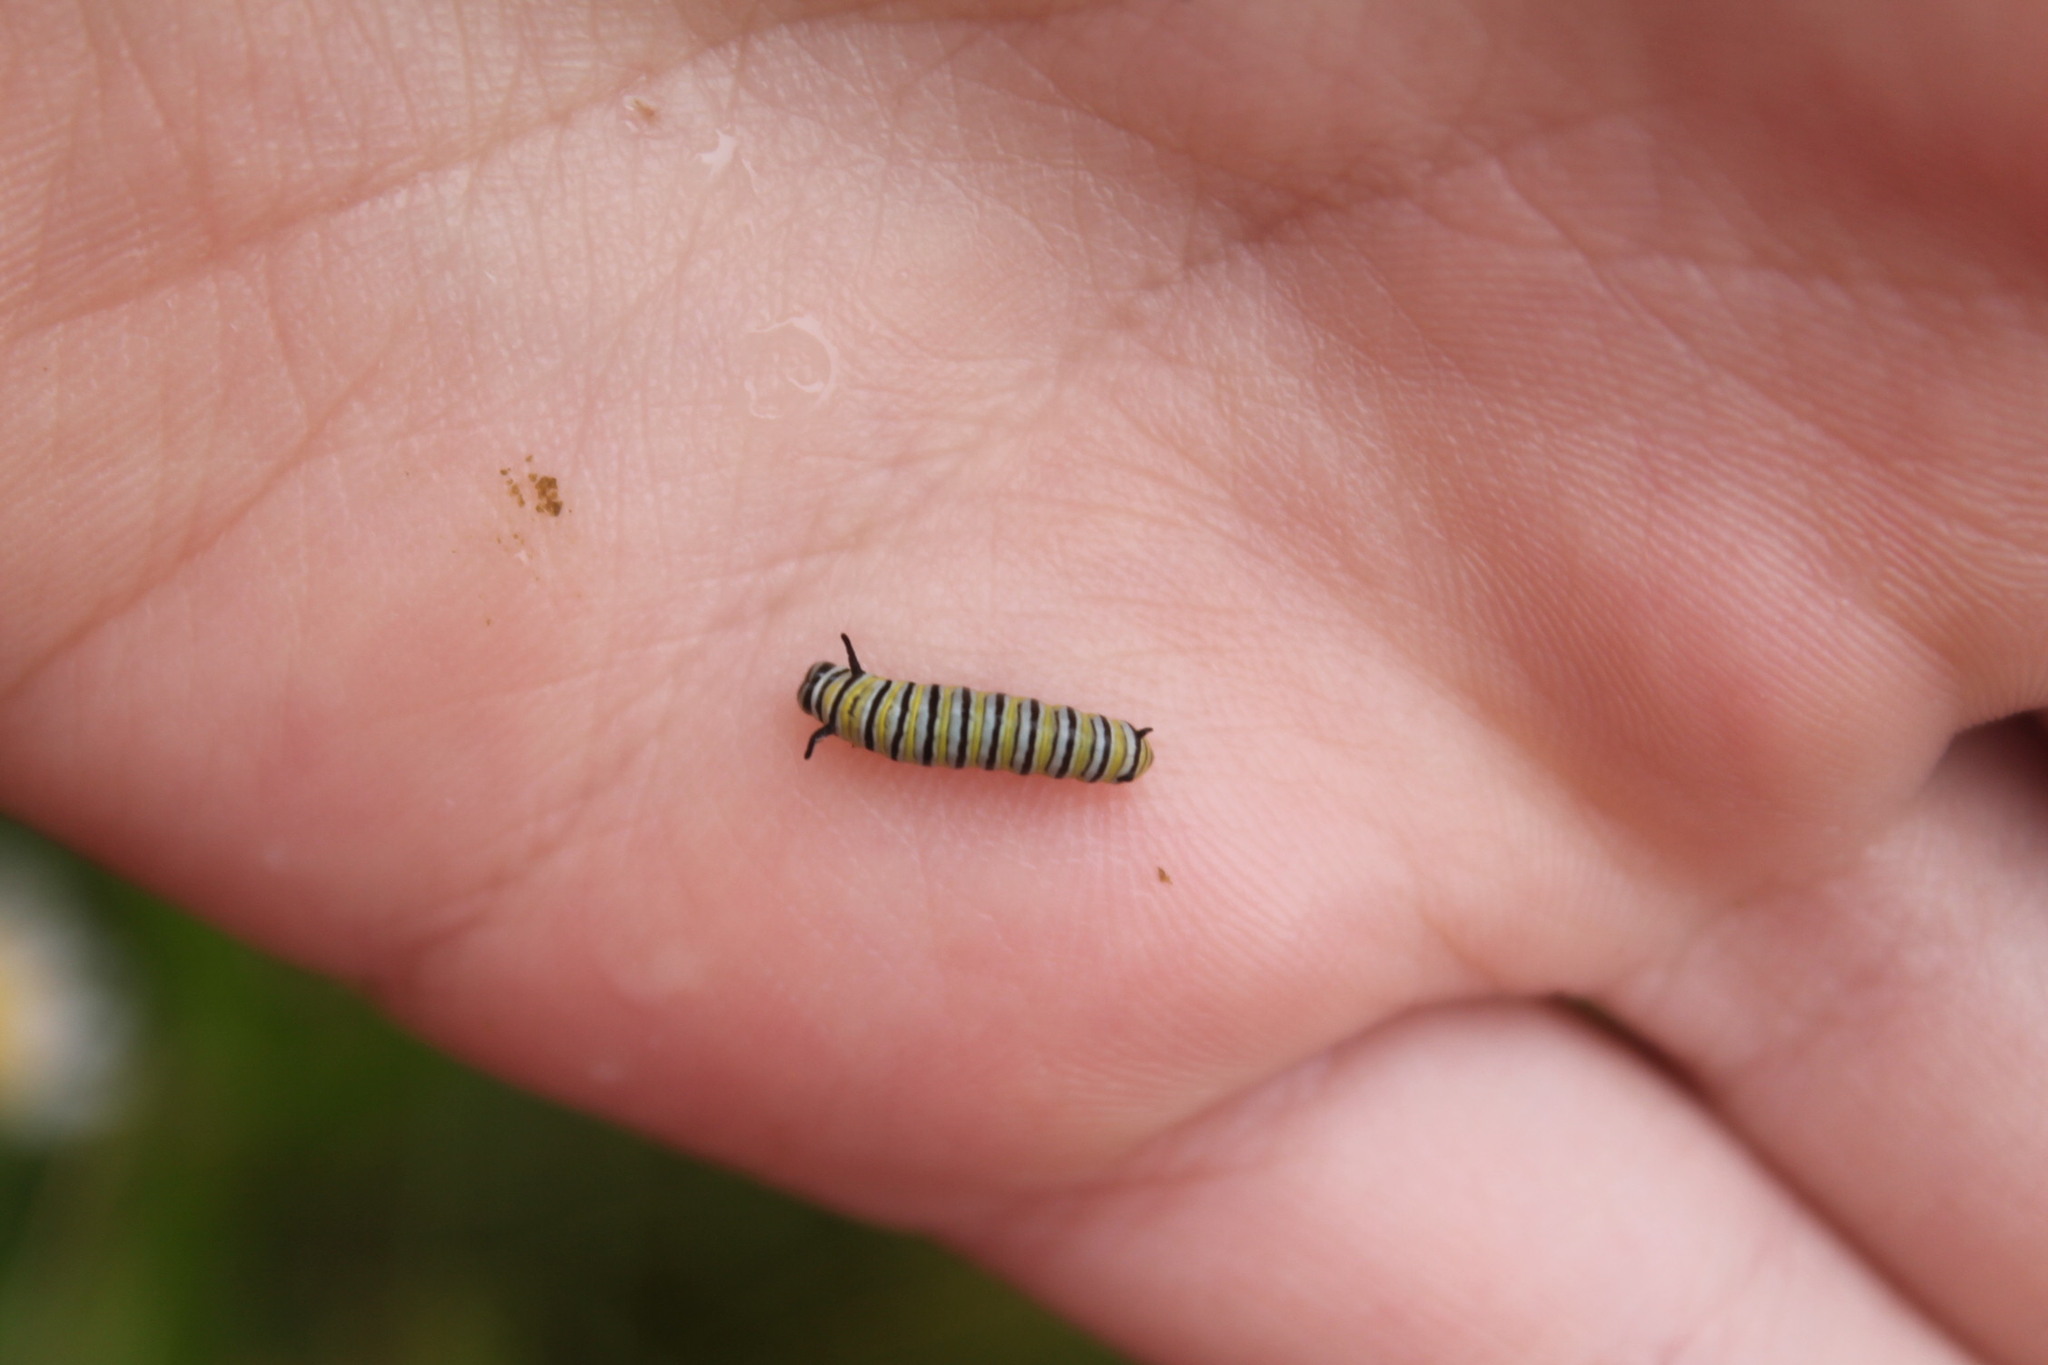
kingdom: Animalia
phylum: Arthropoda
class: Insecta
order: Lepidoptera
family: Nymphalidae
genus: Danaus
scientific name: Danaus plexippus
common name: Monarch
